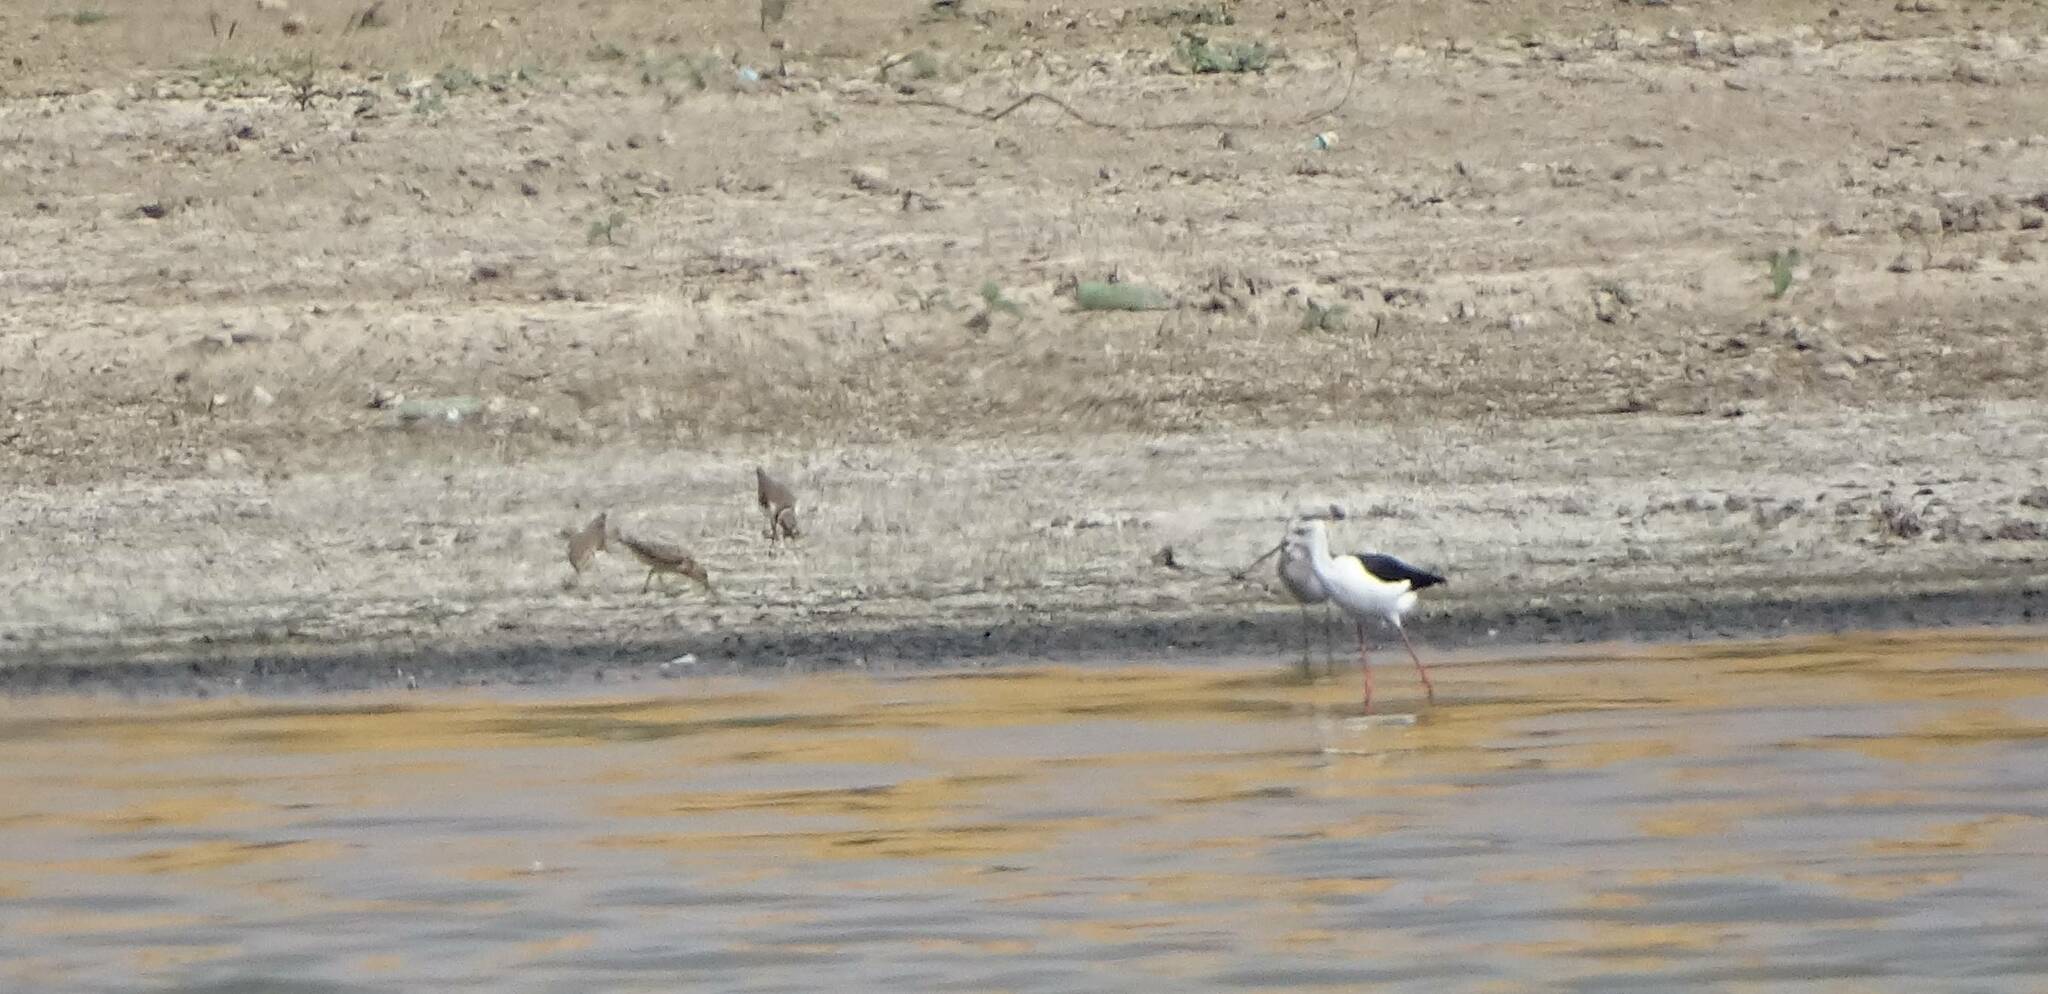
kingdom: Animalia
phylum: Chordata
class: Aves
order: Charadriiformes
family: Recurvirostridae
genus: Himantopus
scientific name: Himantopus himantopus
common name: Black-winged stilt
